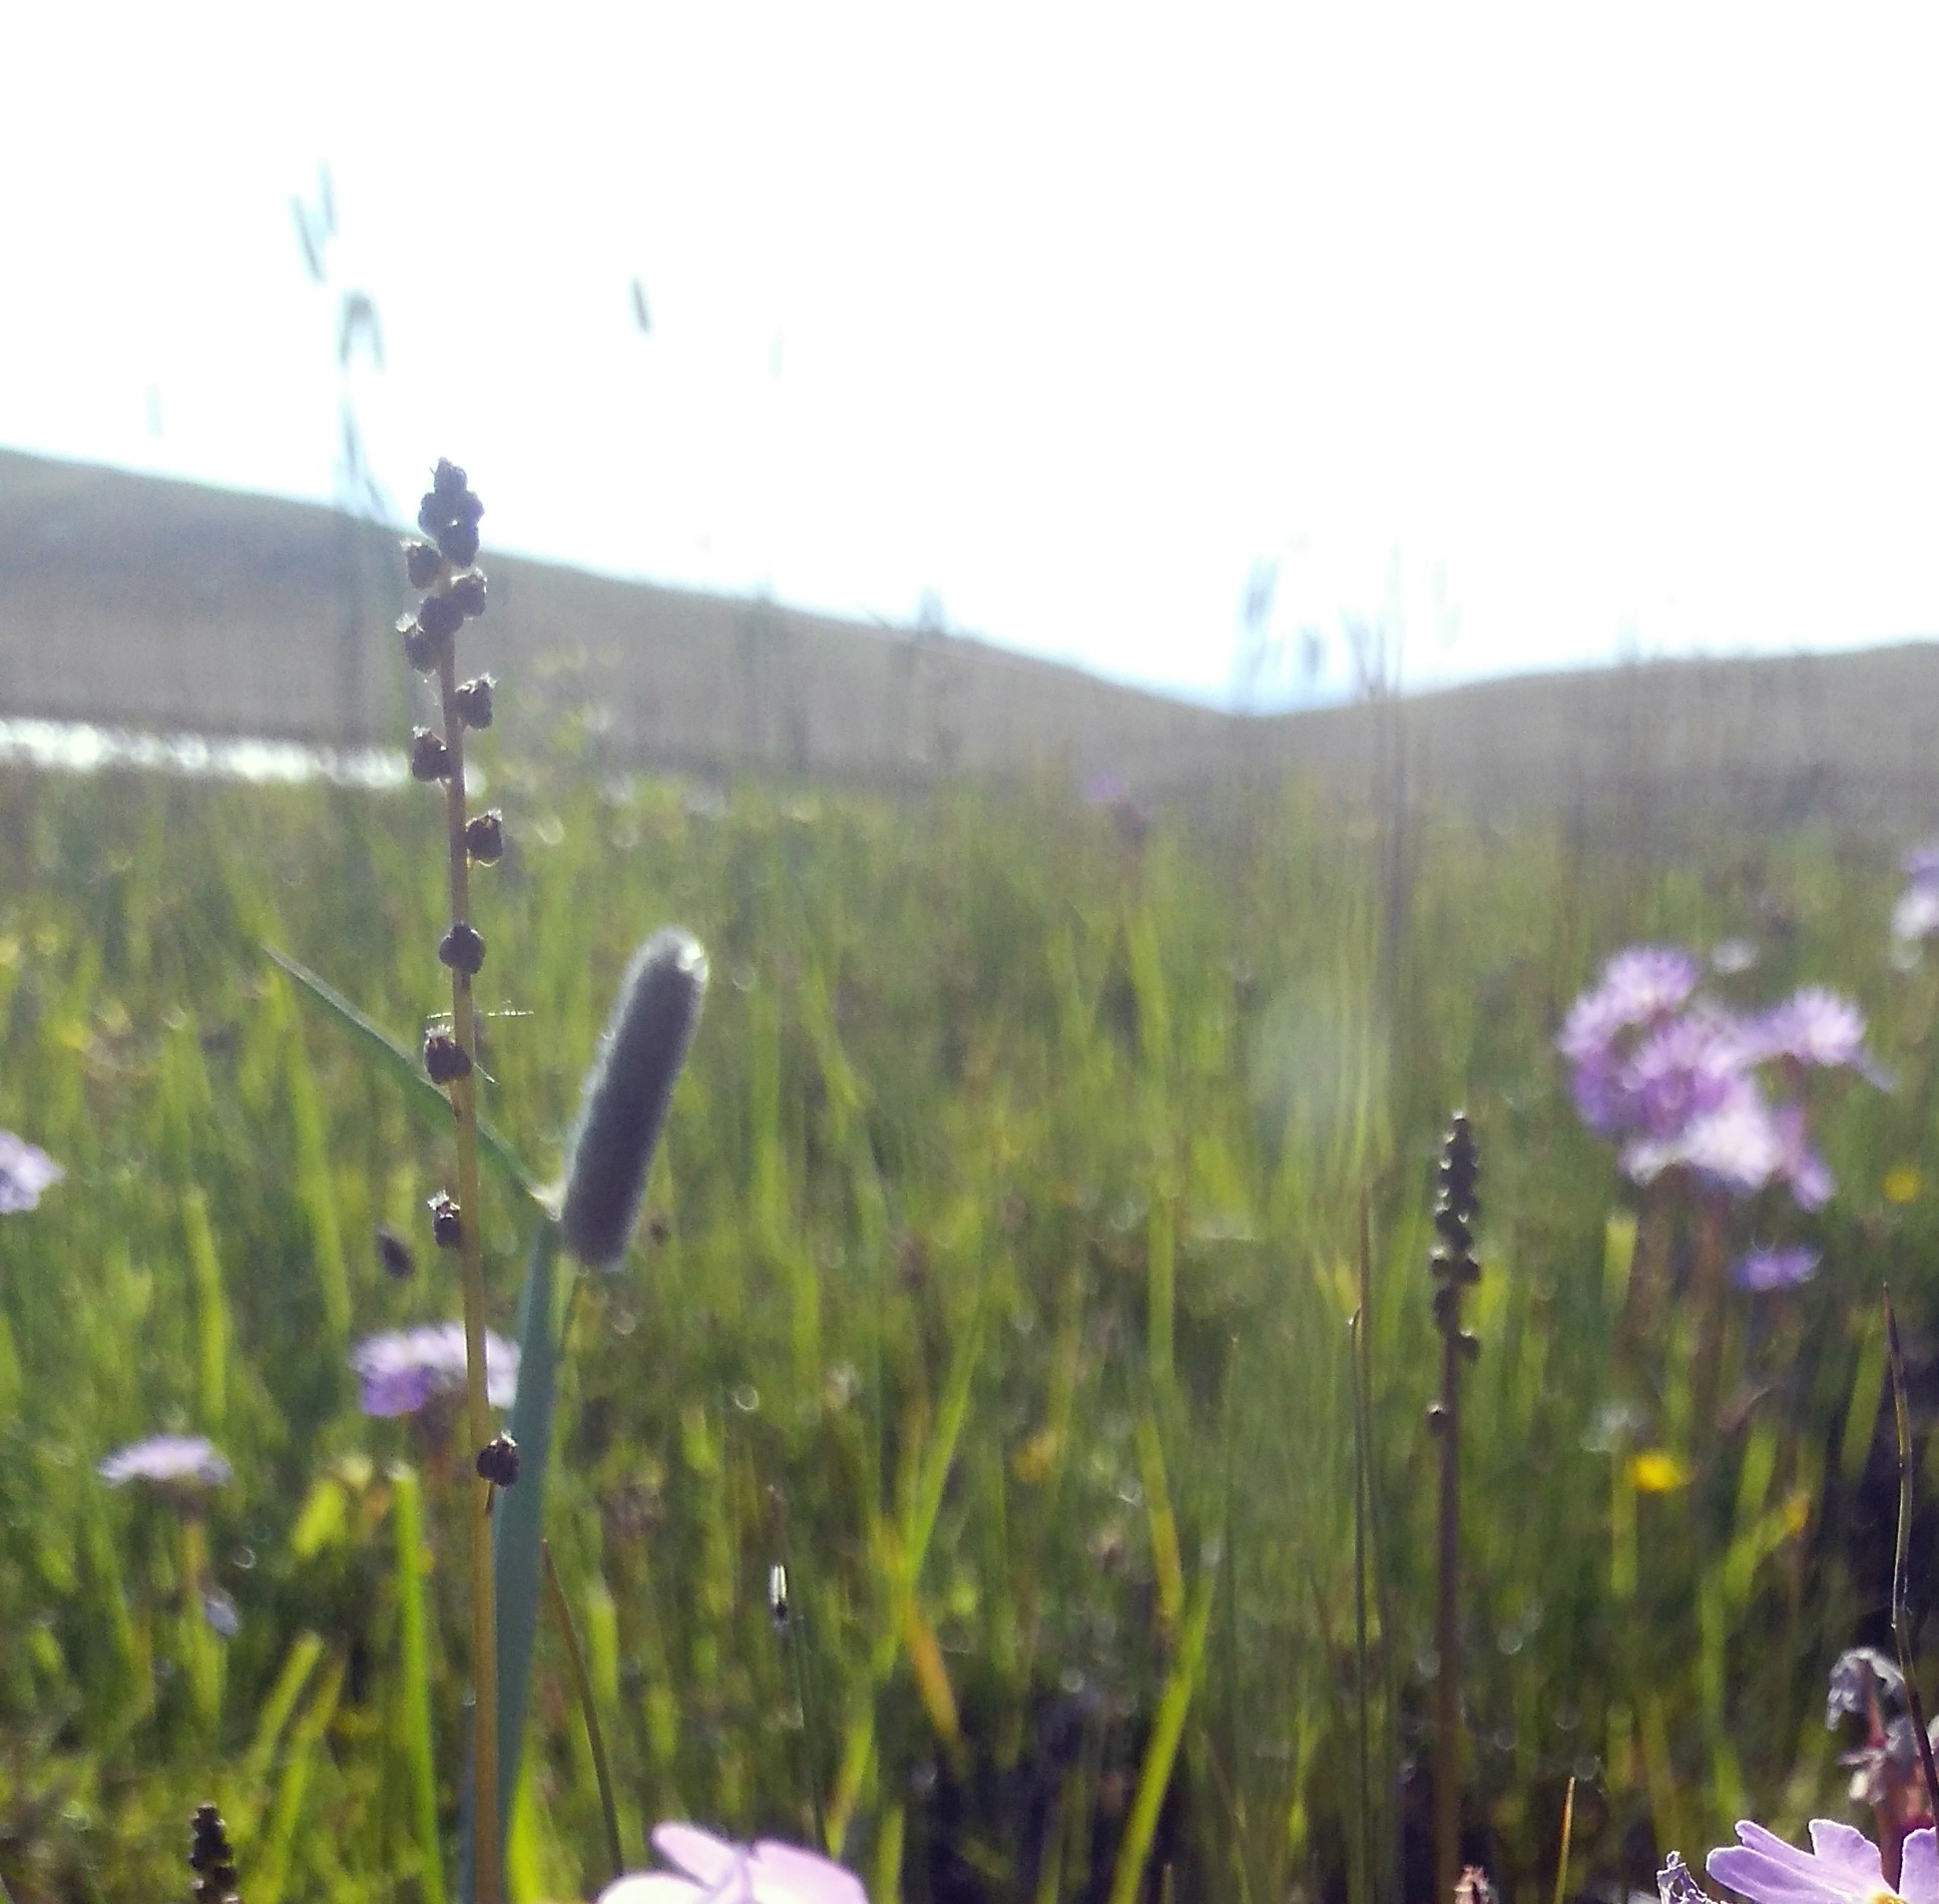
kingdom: Plantae
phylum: Tracheophyta
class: Liliopsida
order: Alismatales
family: Juncaginaceae
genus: Triglochin
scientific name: Triglochin palustris
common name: Marsh arrowgrass
